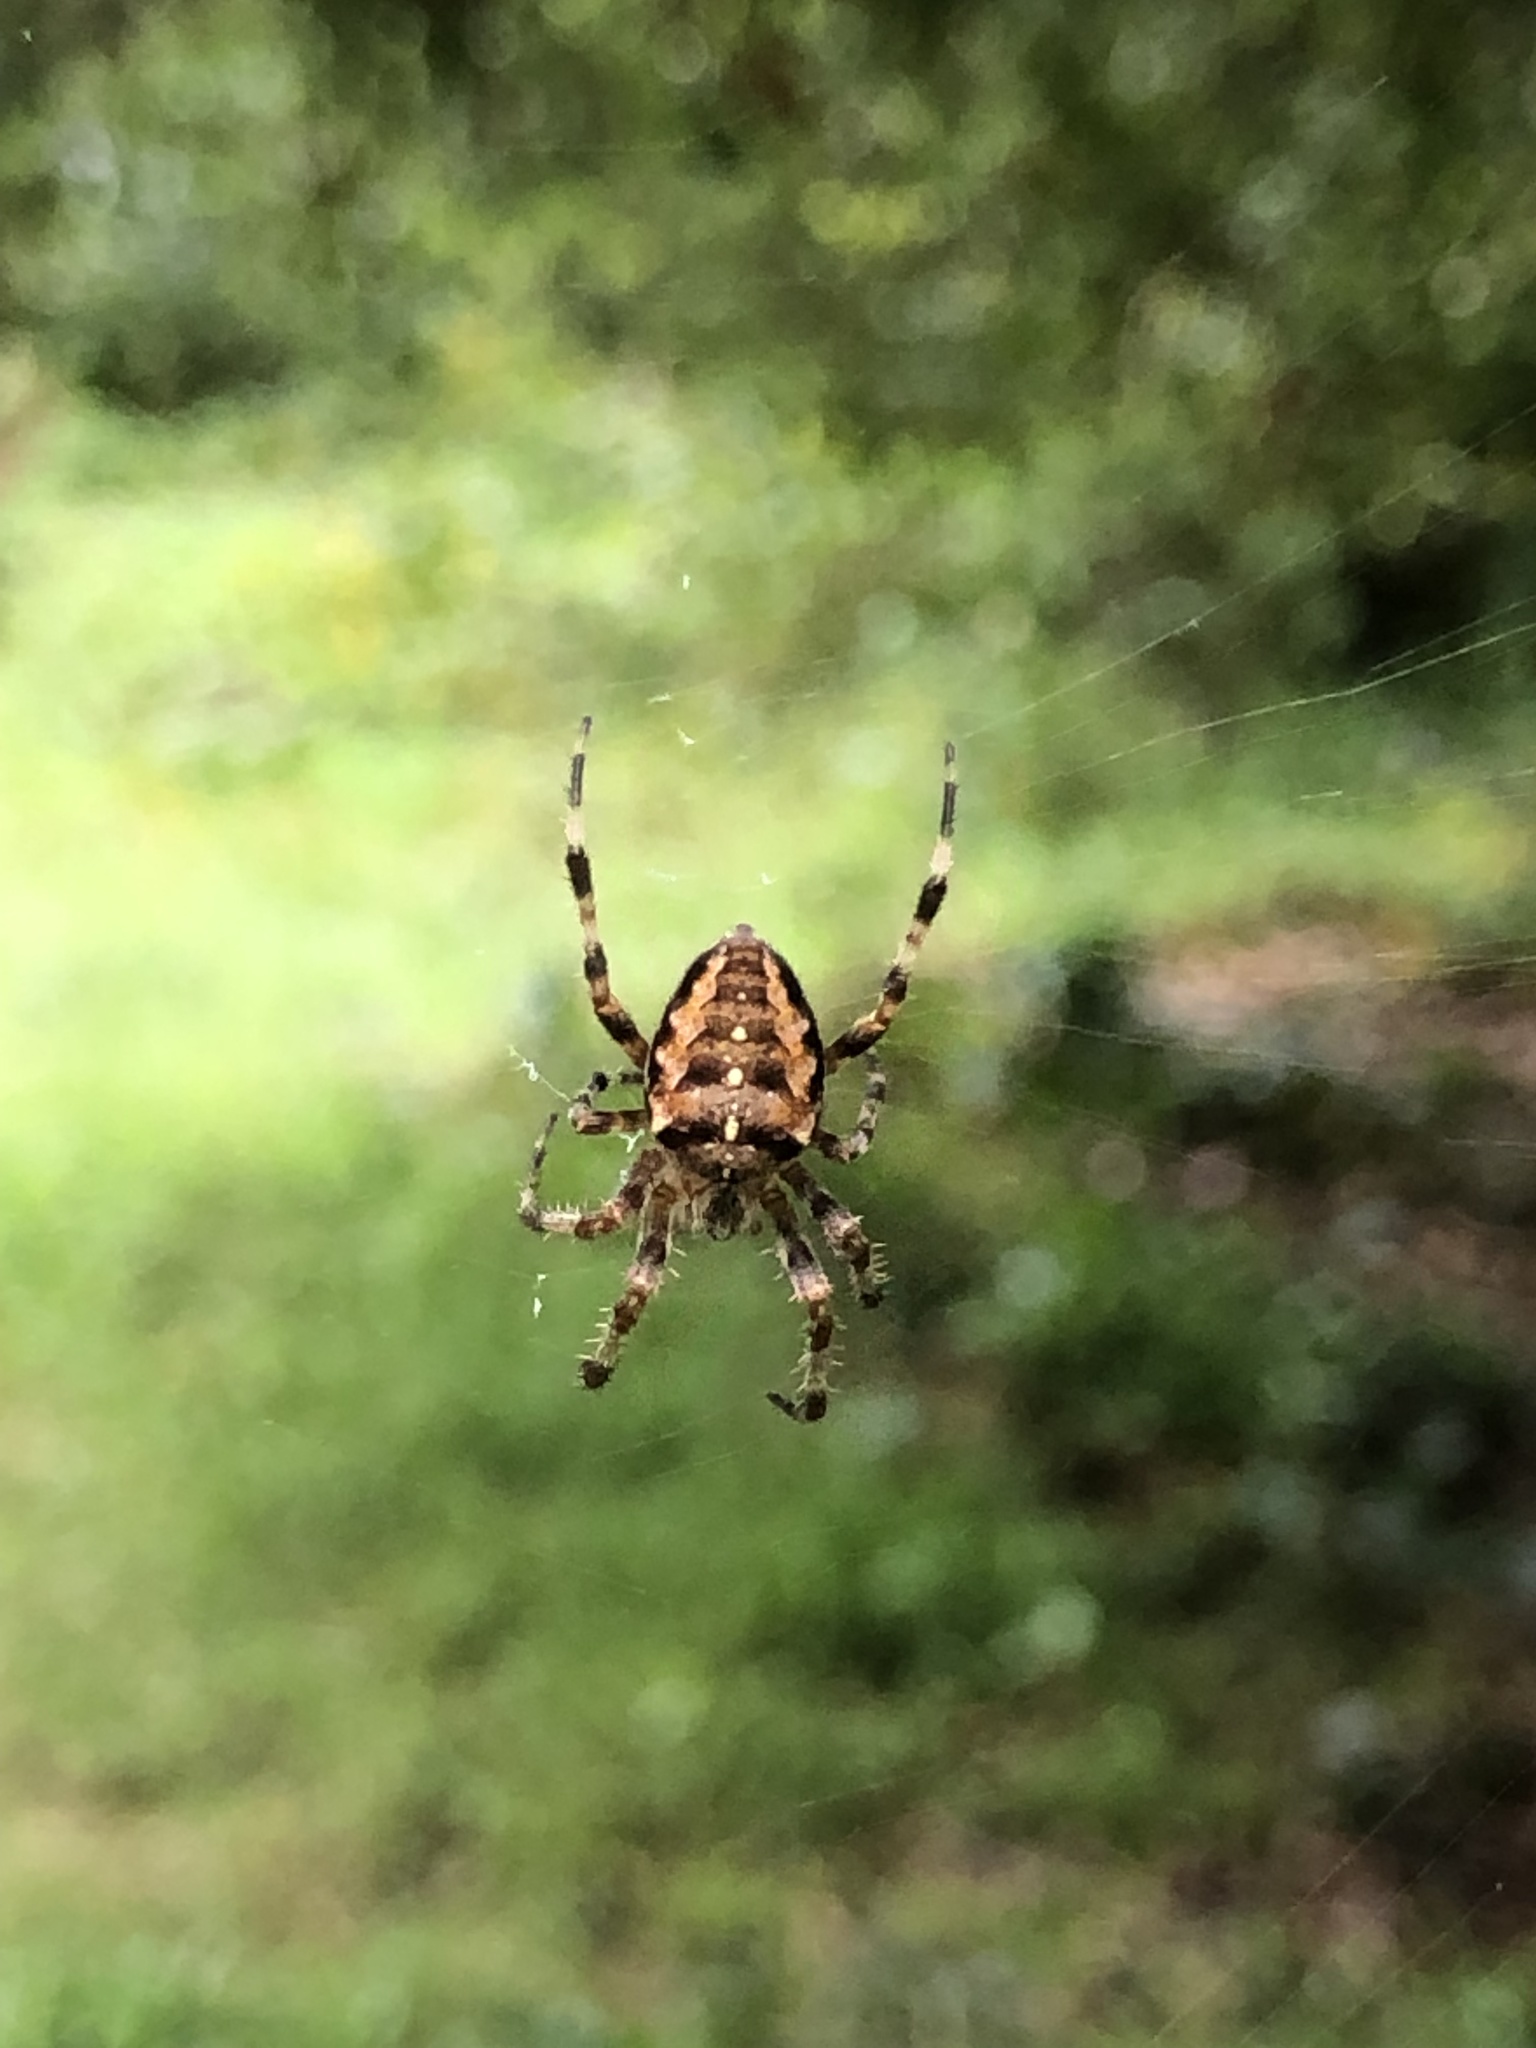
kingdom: Animalia
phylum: Arthropoda
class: Arachnida
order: Araneae
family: Araneidae
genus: Araneus
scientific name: Araneus diadematus
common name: Cross orbweaver
